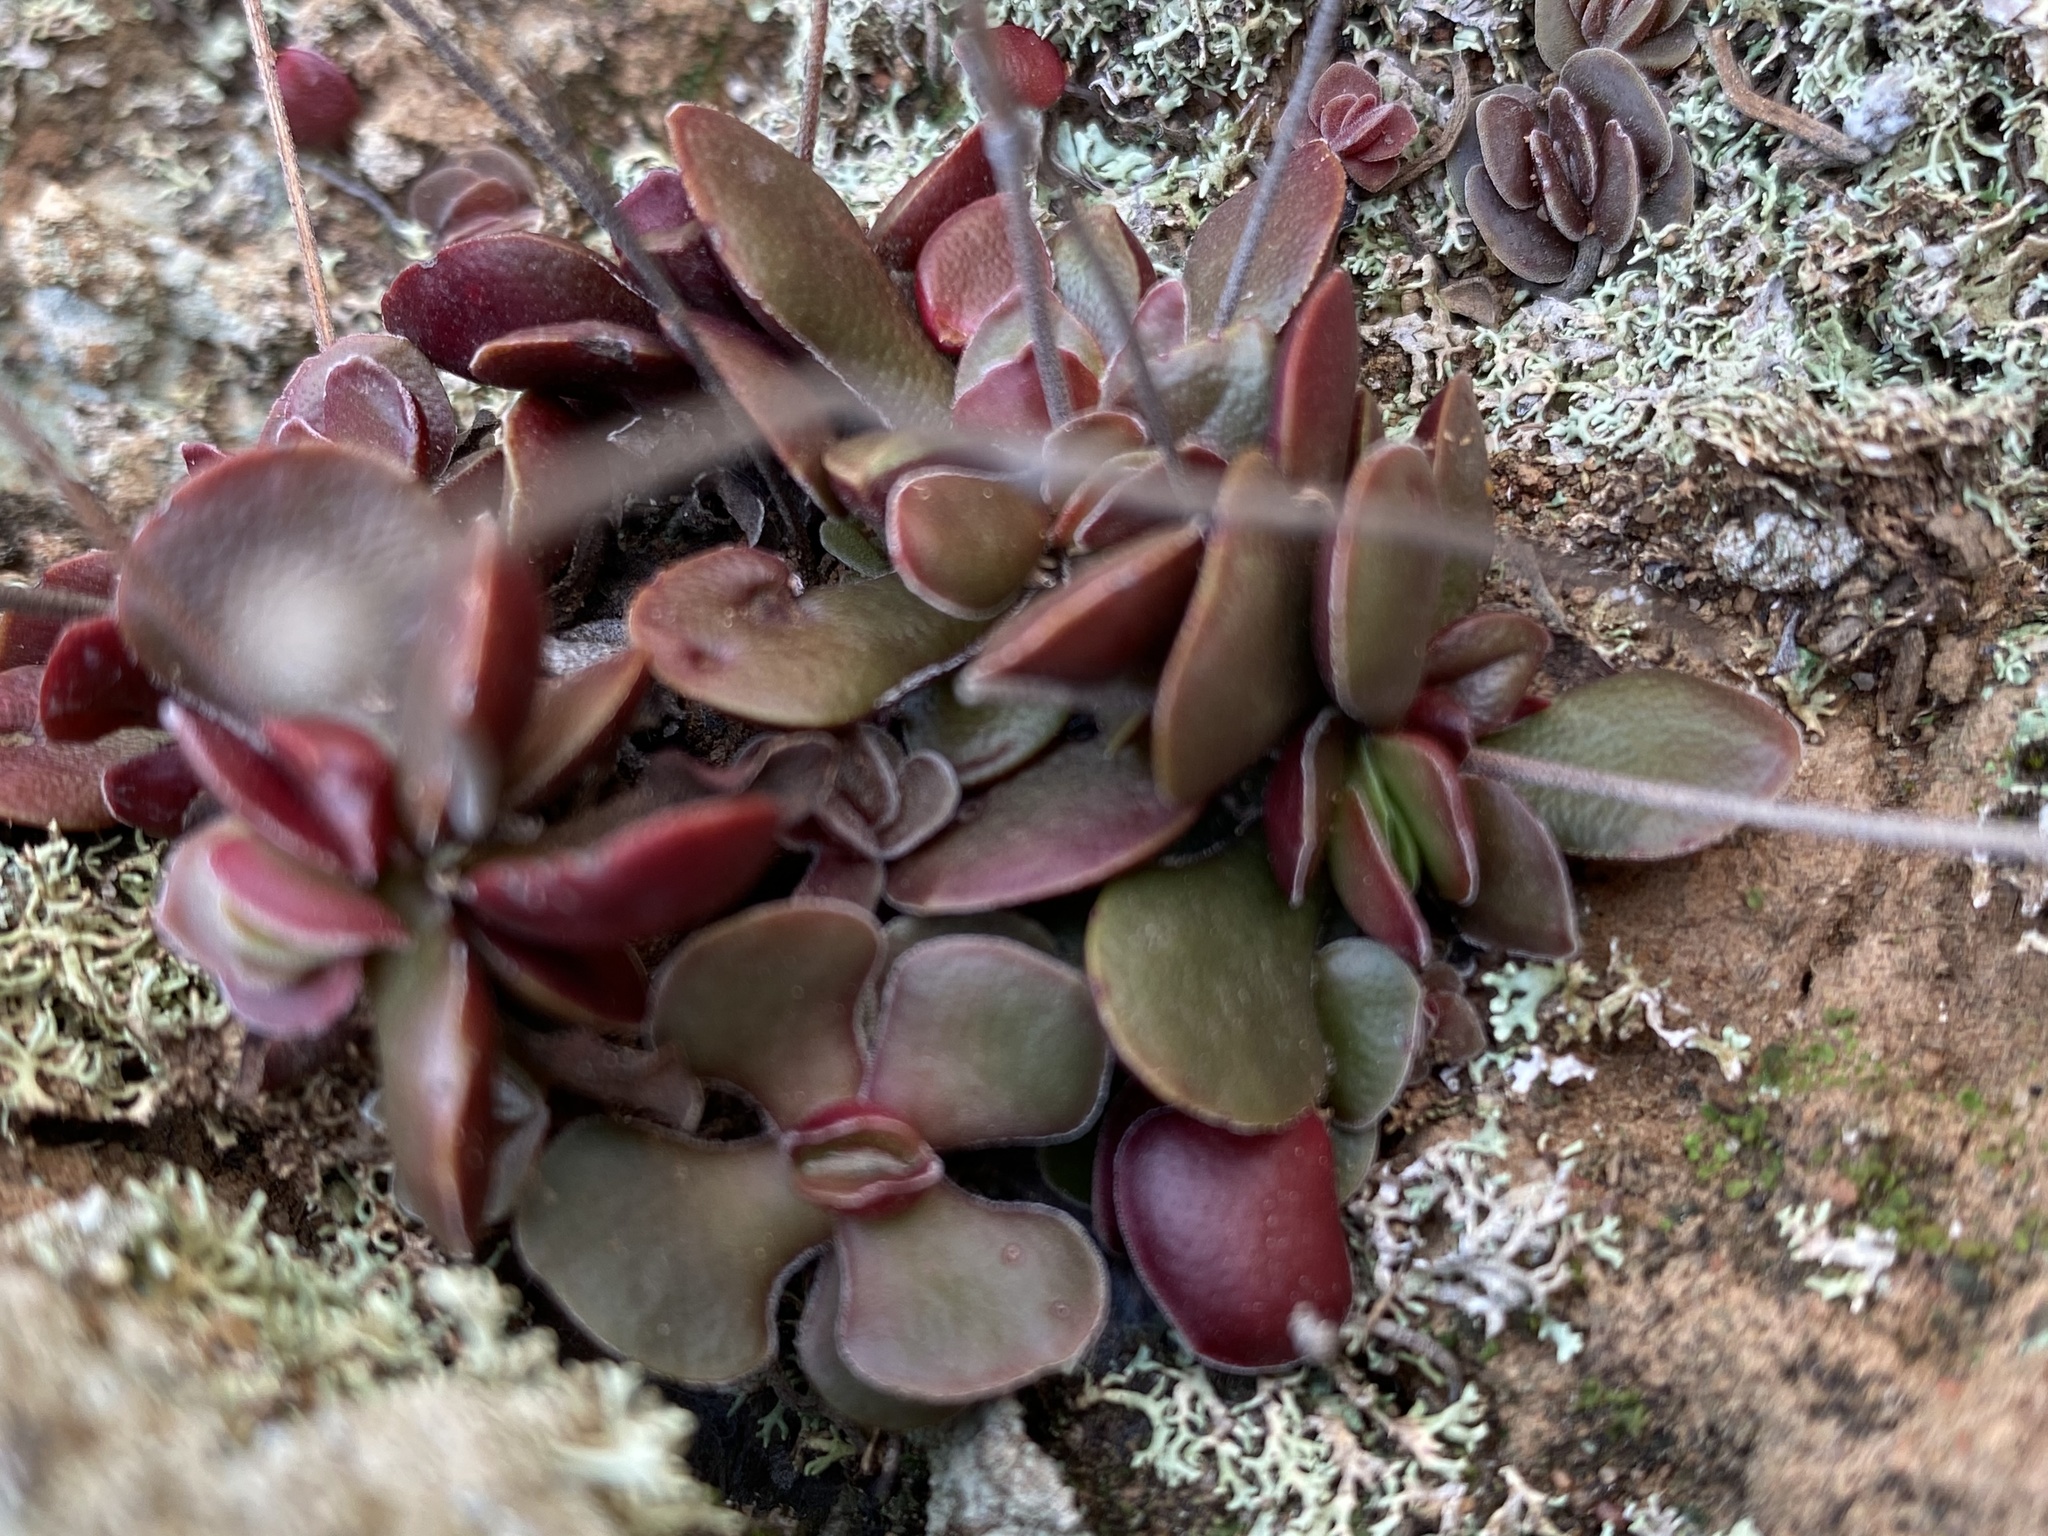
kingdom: Plantae
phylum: Tracheophyta
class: Magnoliopsida
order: Saxifragales
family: Crassulaceae
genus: Crassula
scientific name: Crassula atropurpurea
